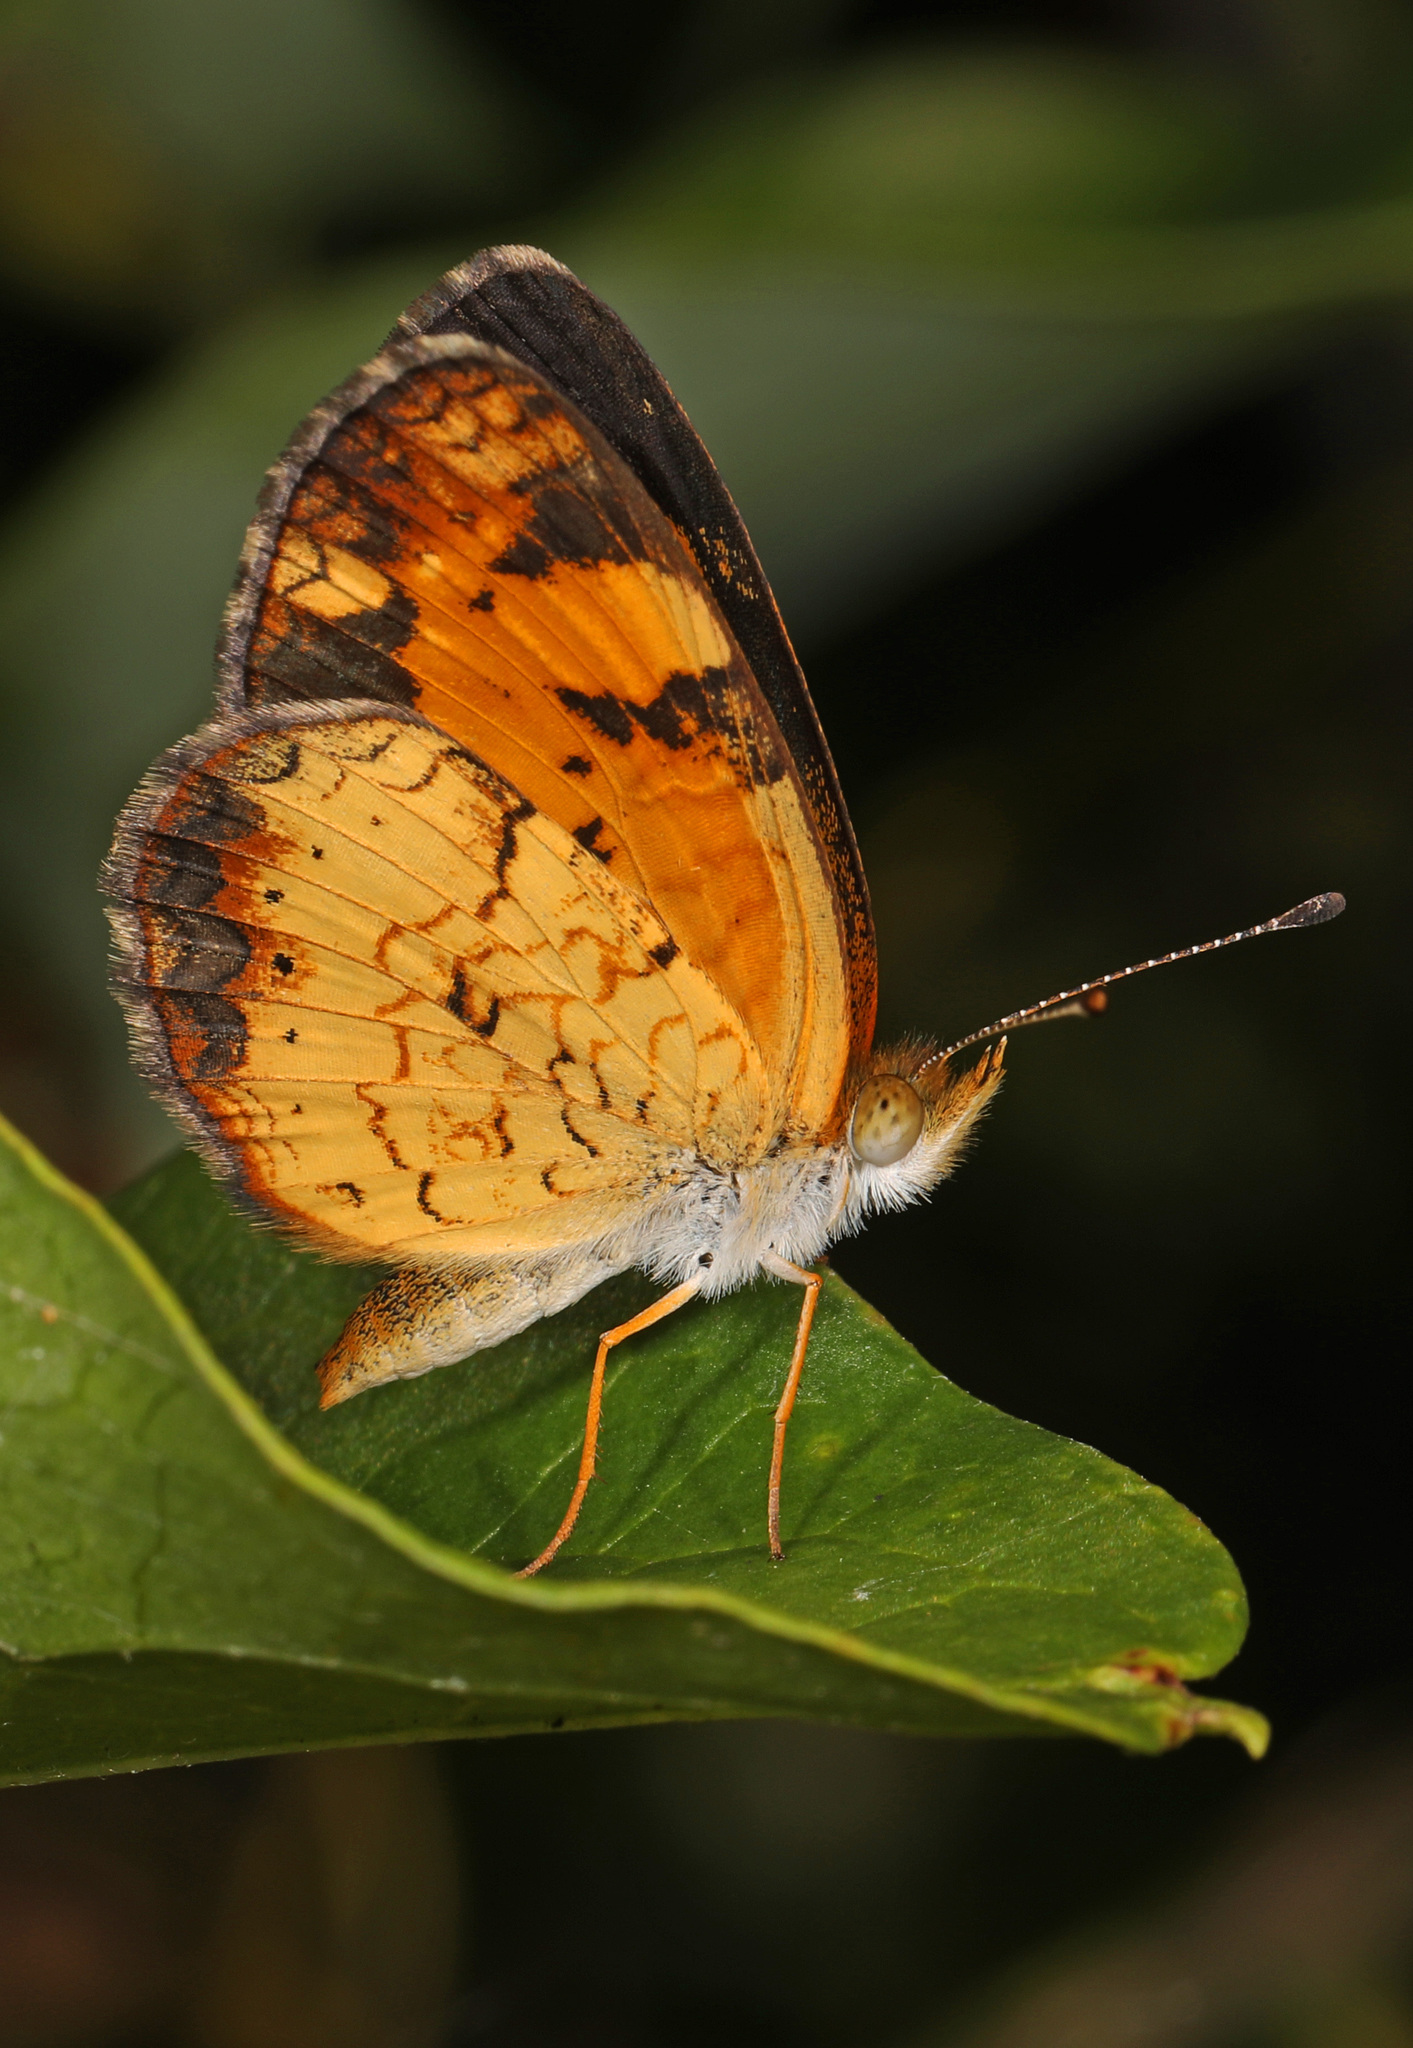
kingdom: Animalia
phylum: Arthropoda
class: Insecta
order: Lepidoptera
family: Nymphalidae
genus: Phyciodes
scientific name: Phyciodes tharos
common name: Pearl crescent
